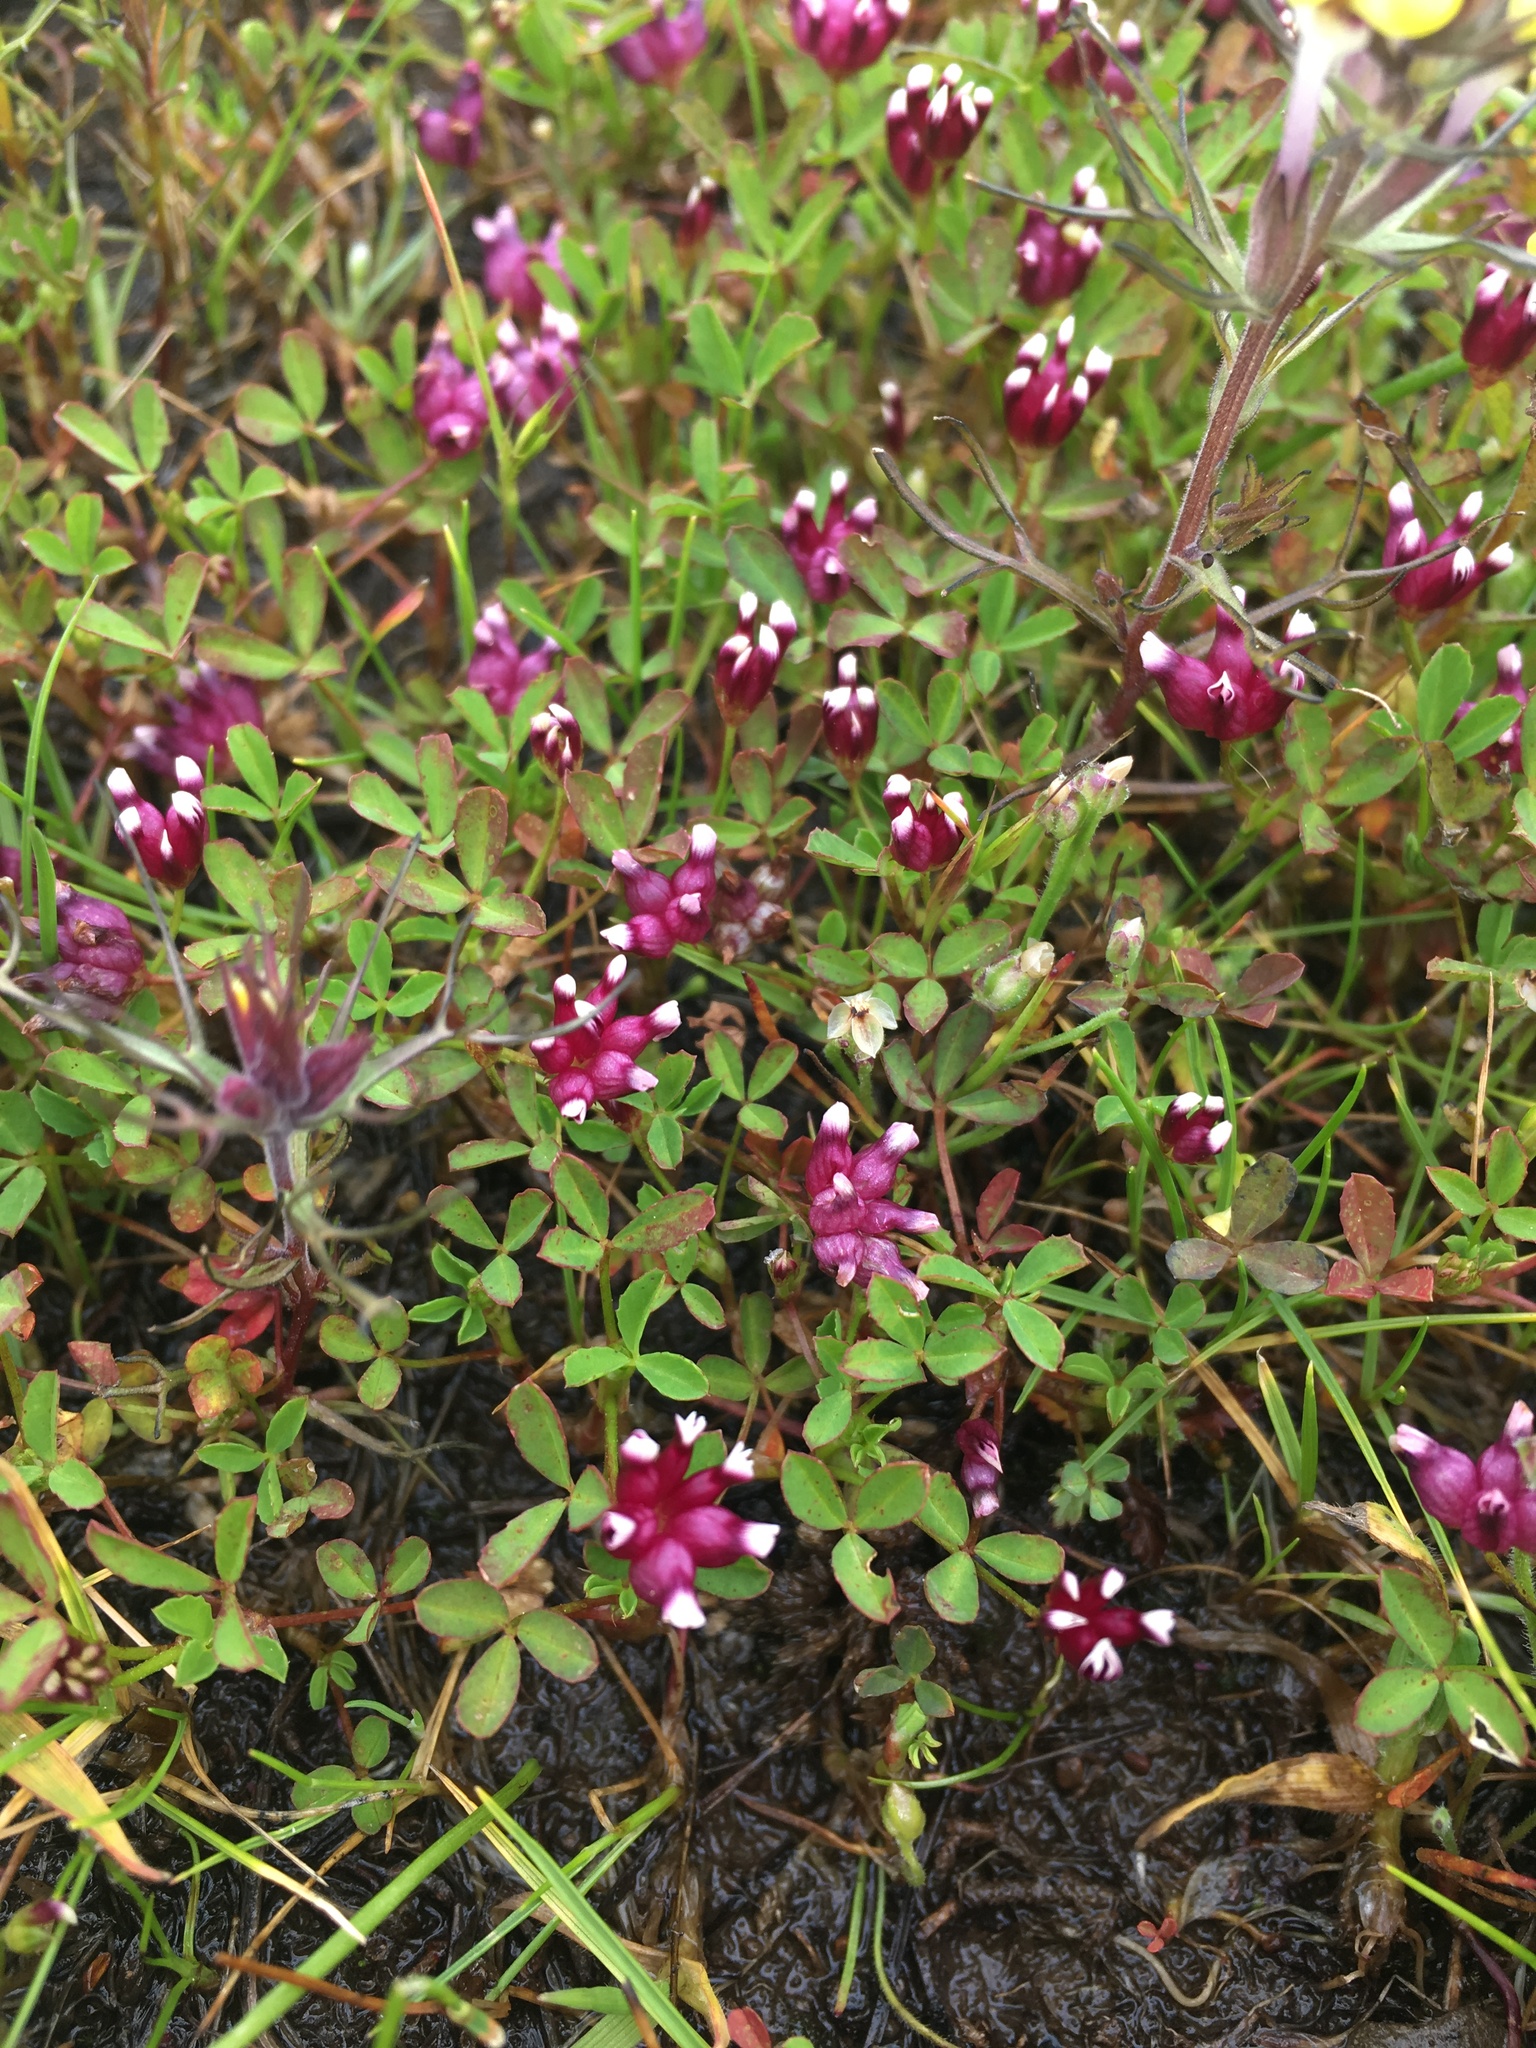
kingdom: Plantae
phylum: Tracheophyta
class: Magnoliopsida
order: Fabales
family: Fabaceae
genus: Trifolium
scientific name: Trifolium depauperatum
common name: Poverty clover
